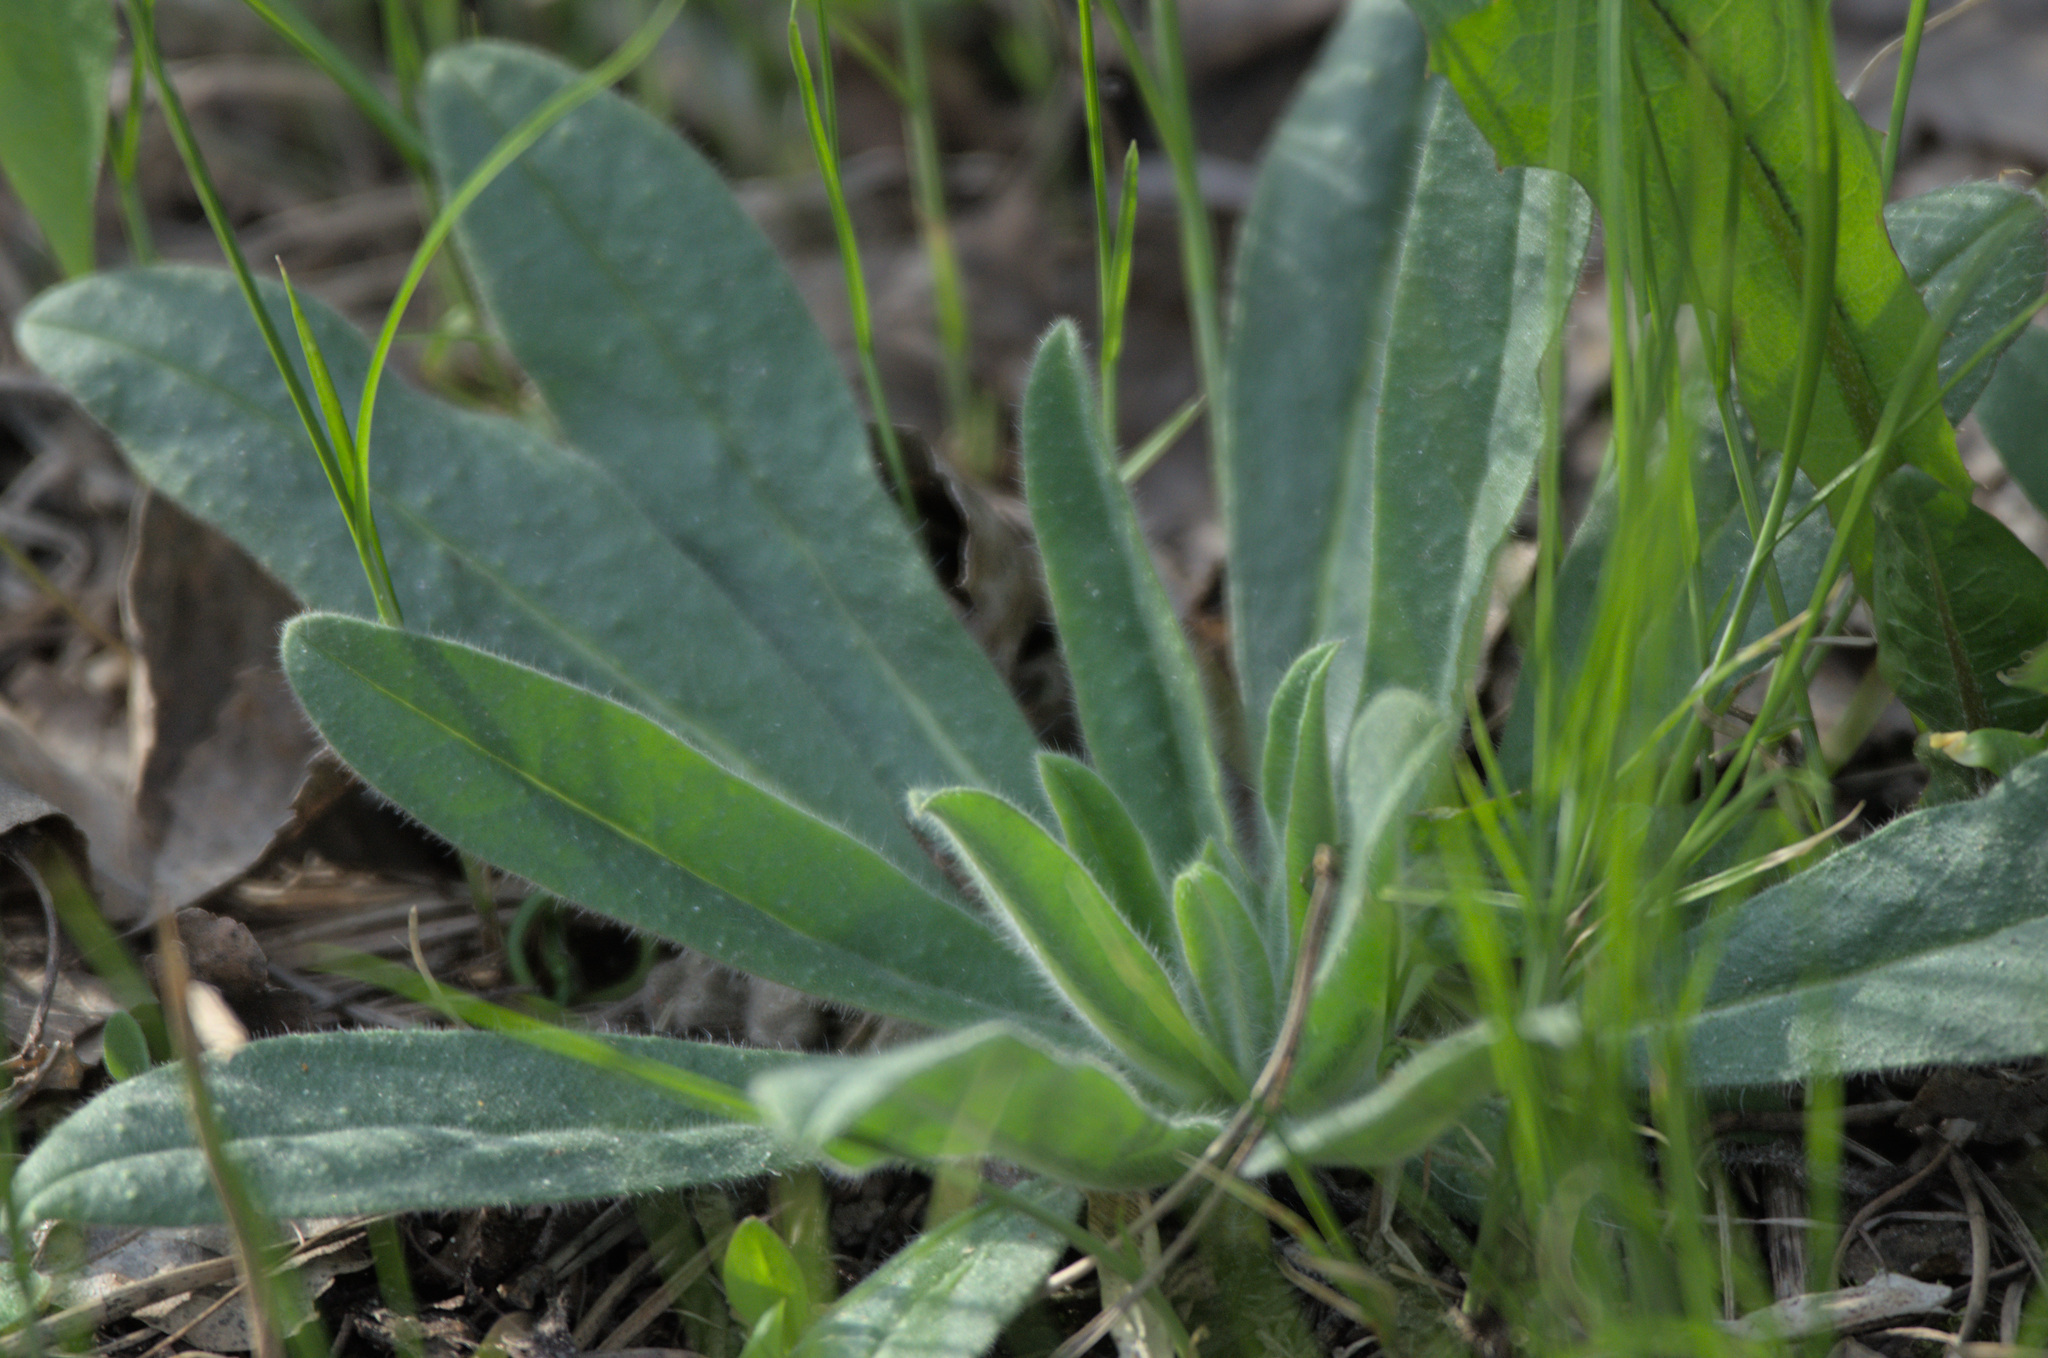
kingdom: Plantae
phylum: Tracheophyta
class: Magnoliopsida
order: Boraginales
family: Boraginaceae
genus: Echium
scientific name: Echium vulgare
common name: Common viper's bugloss
